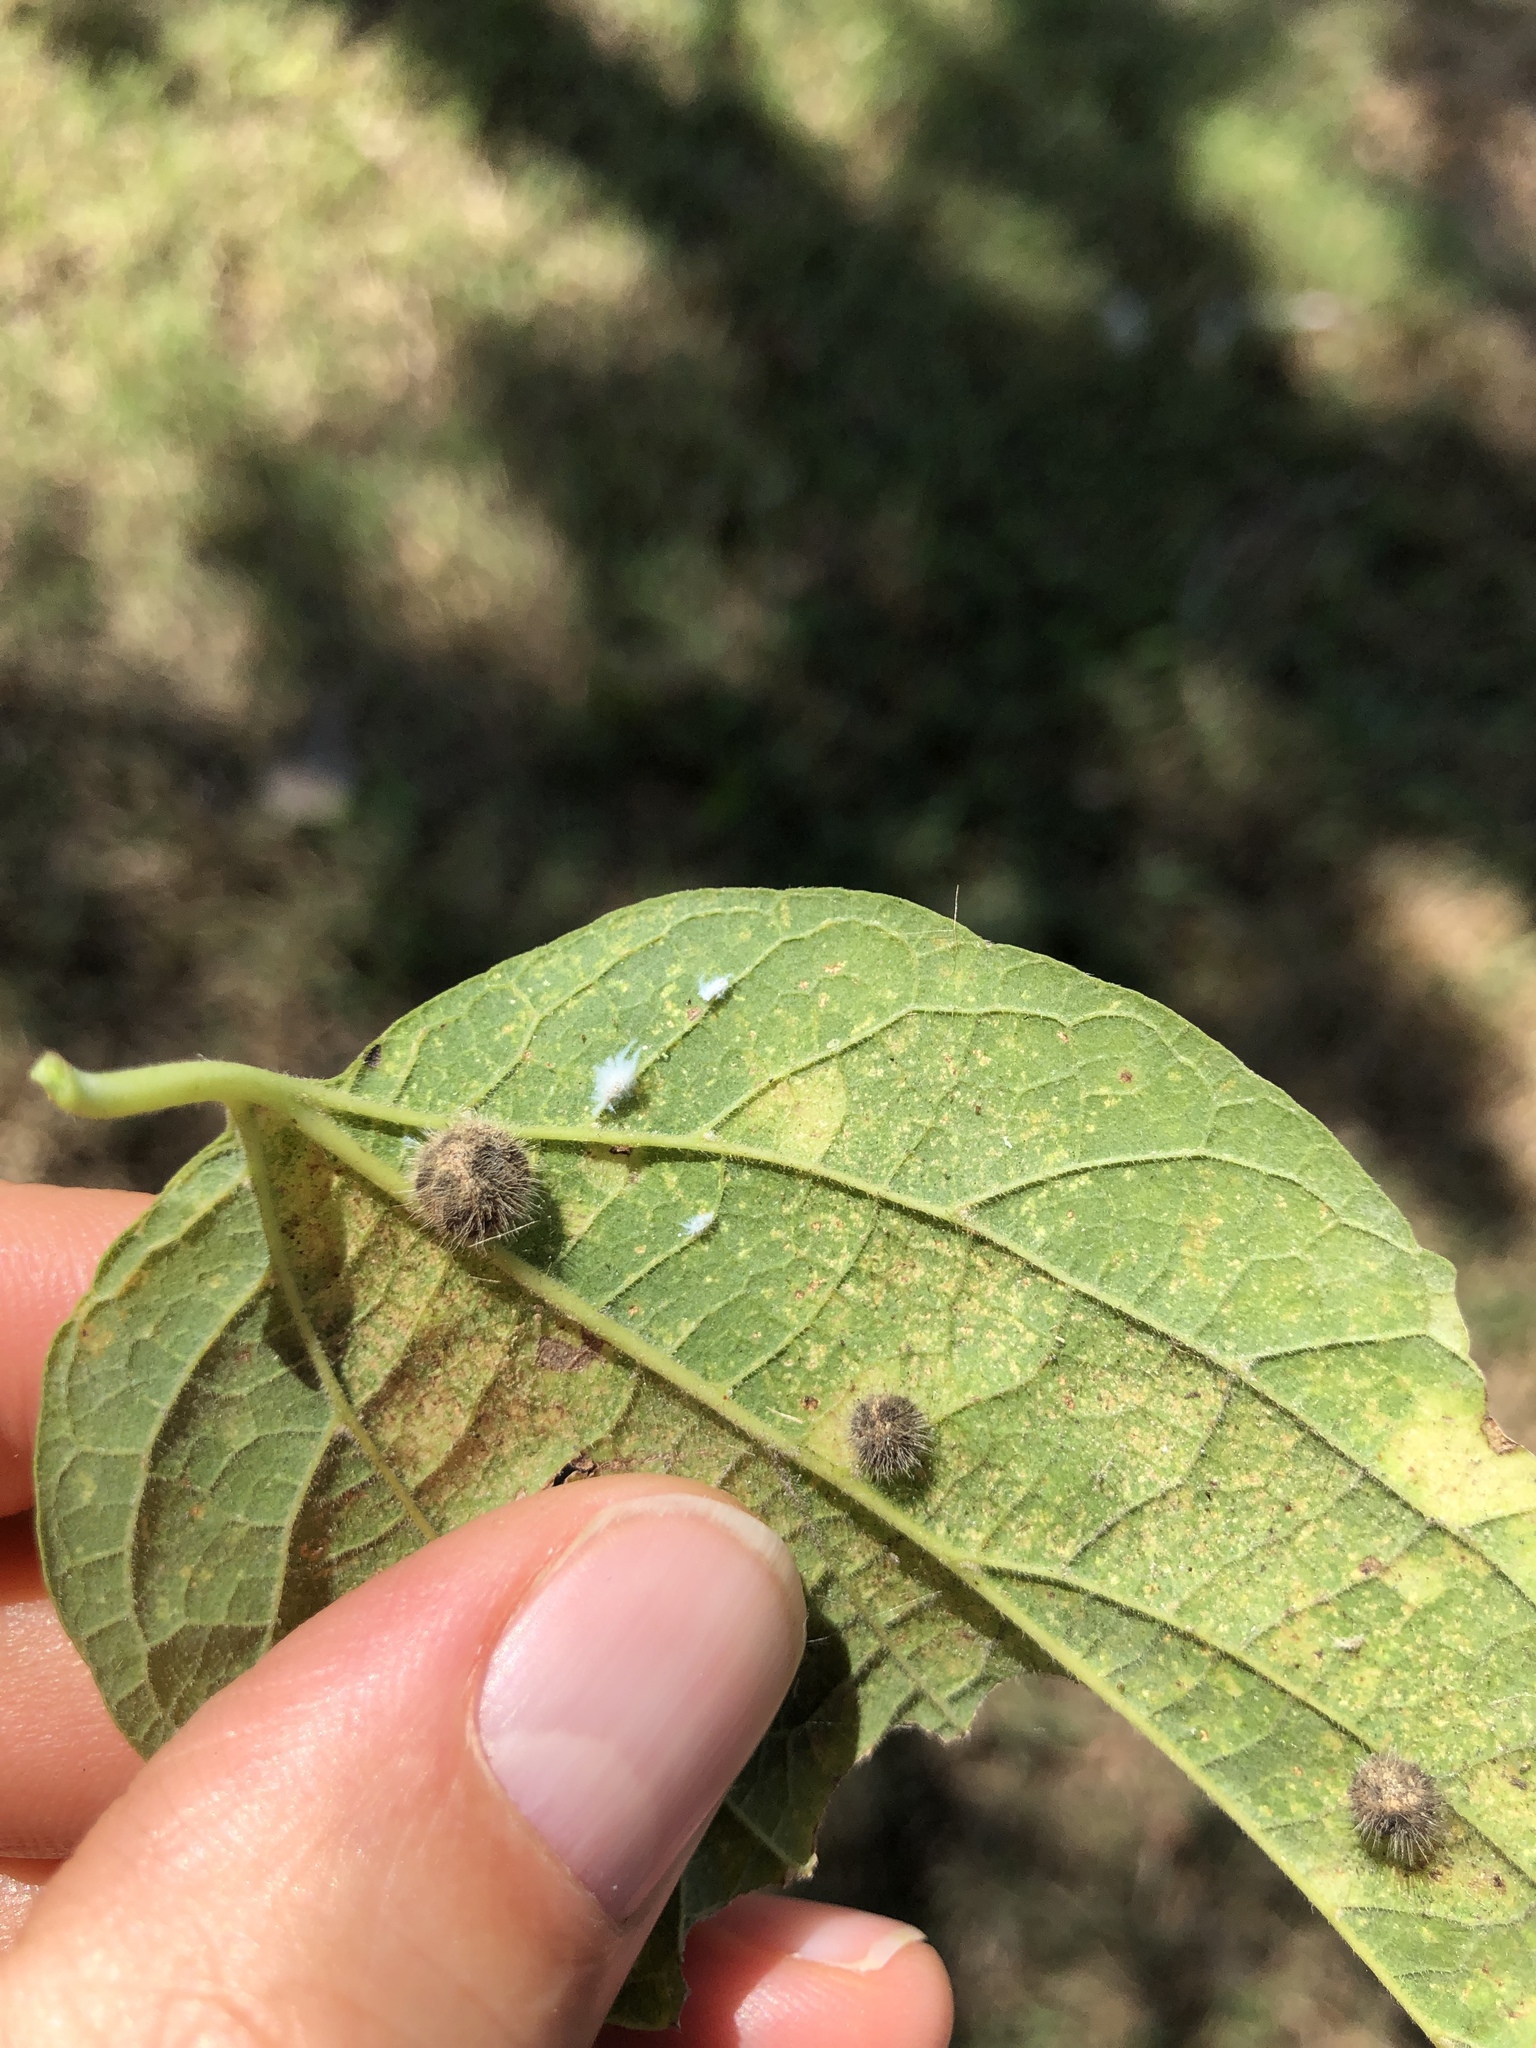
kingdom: Animalia
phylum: Arthropoda
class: Insecta
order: Diptera
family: Cecidomyiidae
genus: Celticecis
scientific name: Celticecis pubescens
